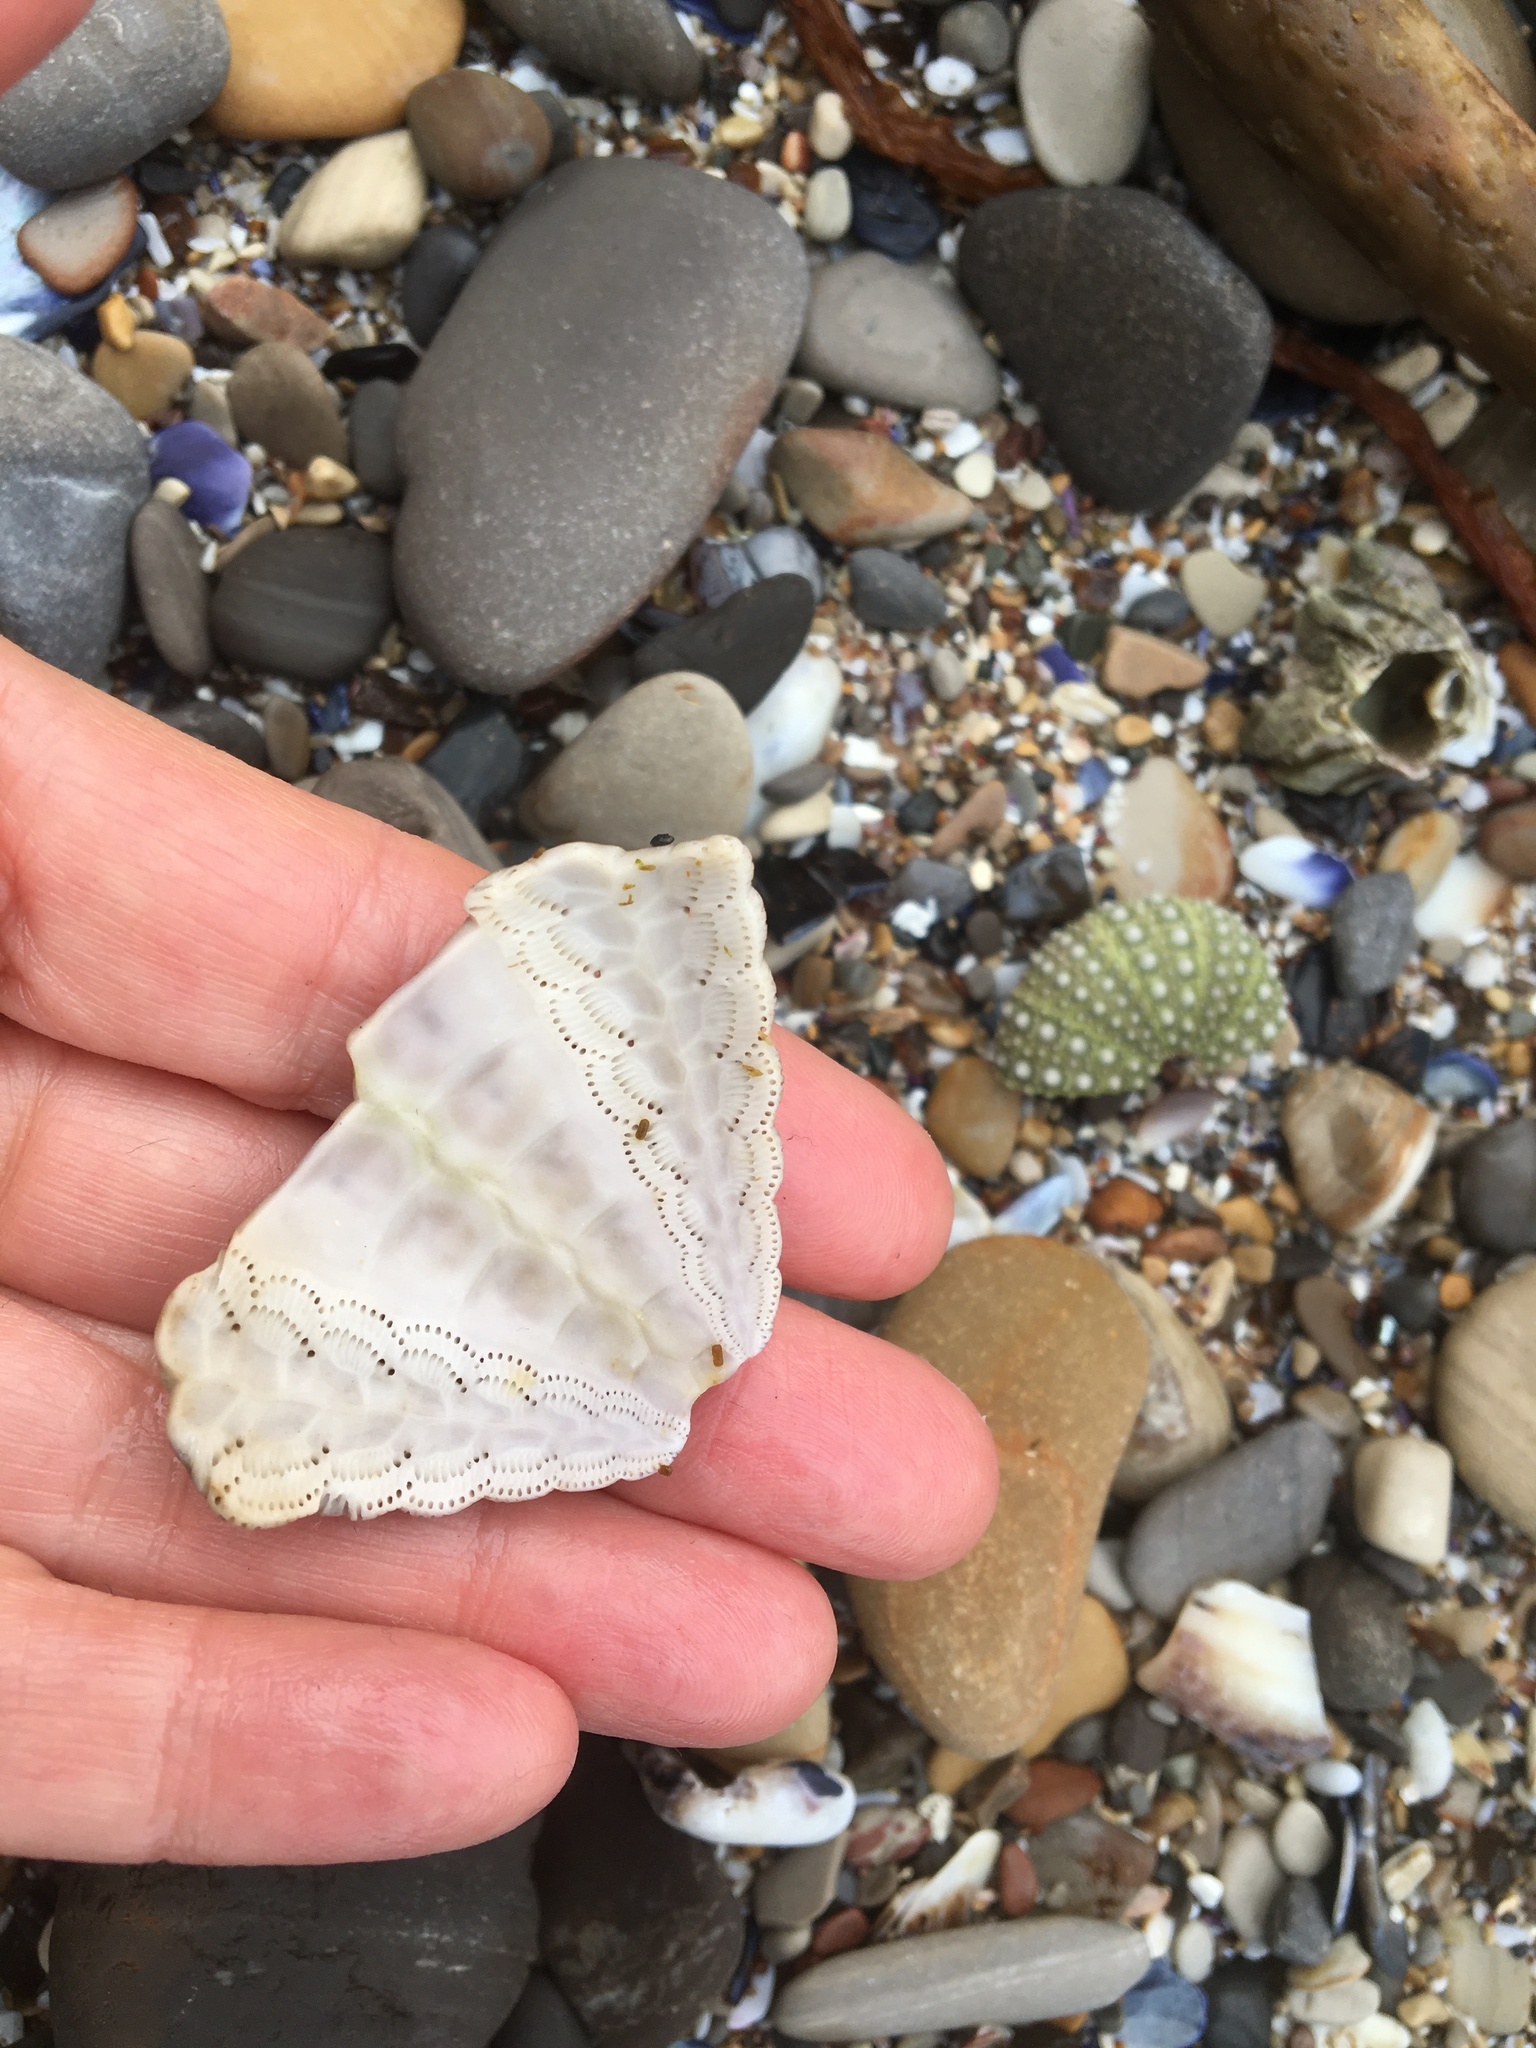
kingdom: Animalia
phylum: Echinodermata
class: Echinoidea
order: Camarodonta
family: Strongylocentrotidae
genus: Strongylocentrotus
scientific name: Strongylocentrotus purpuratus
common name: Purple sea urchin
